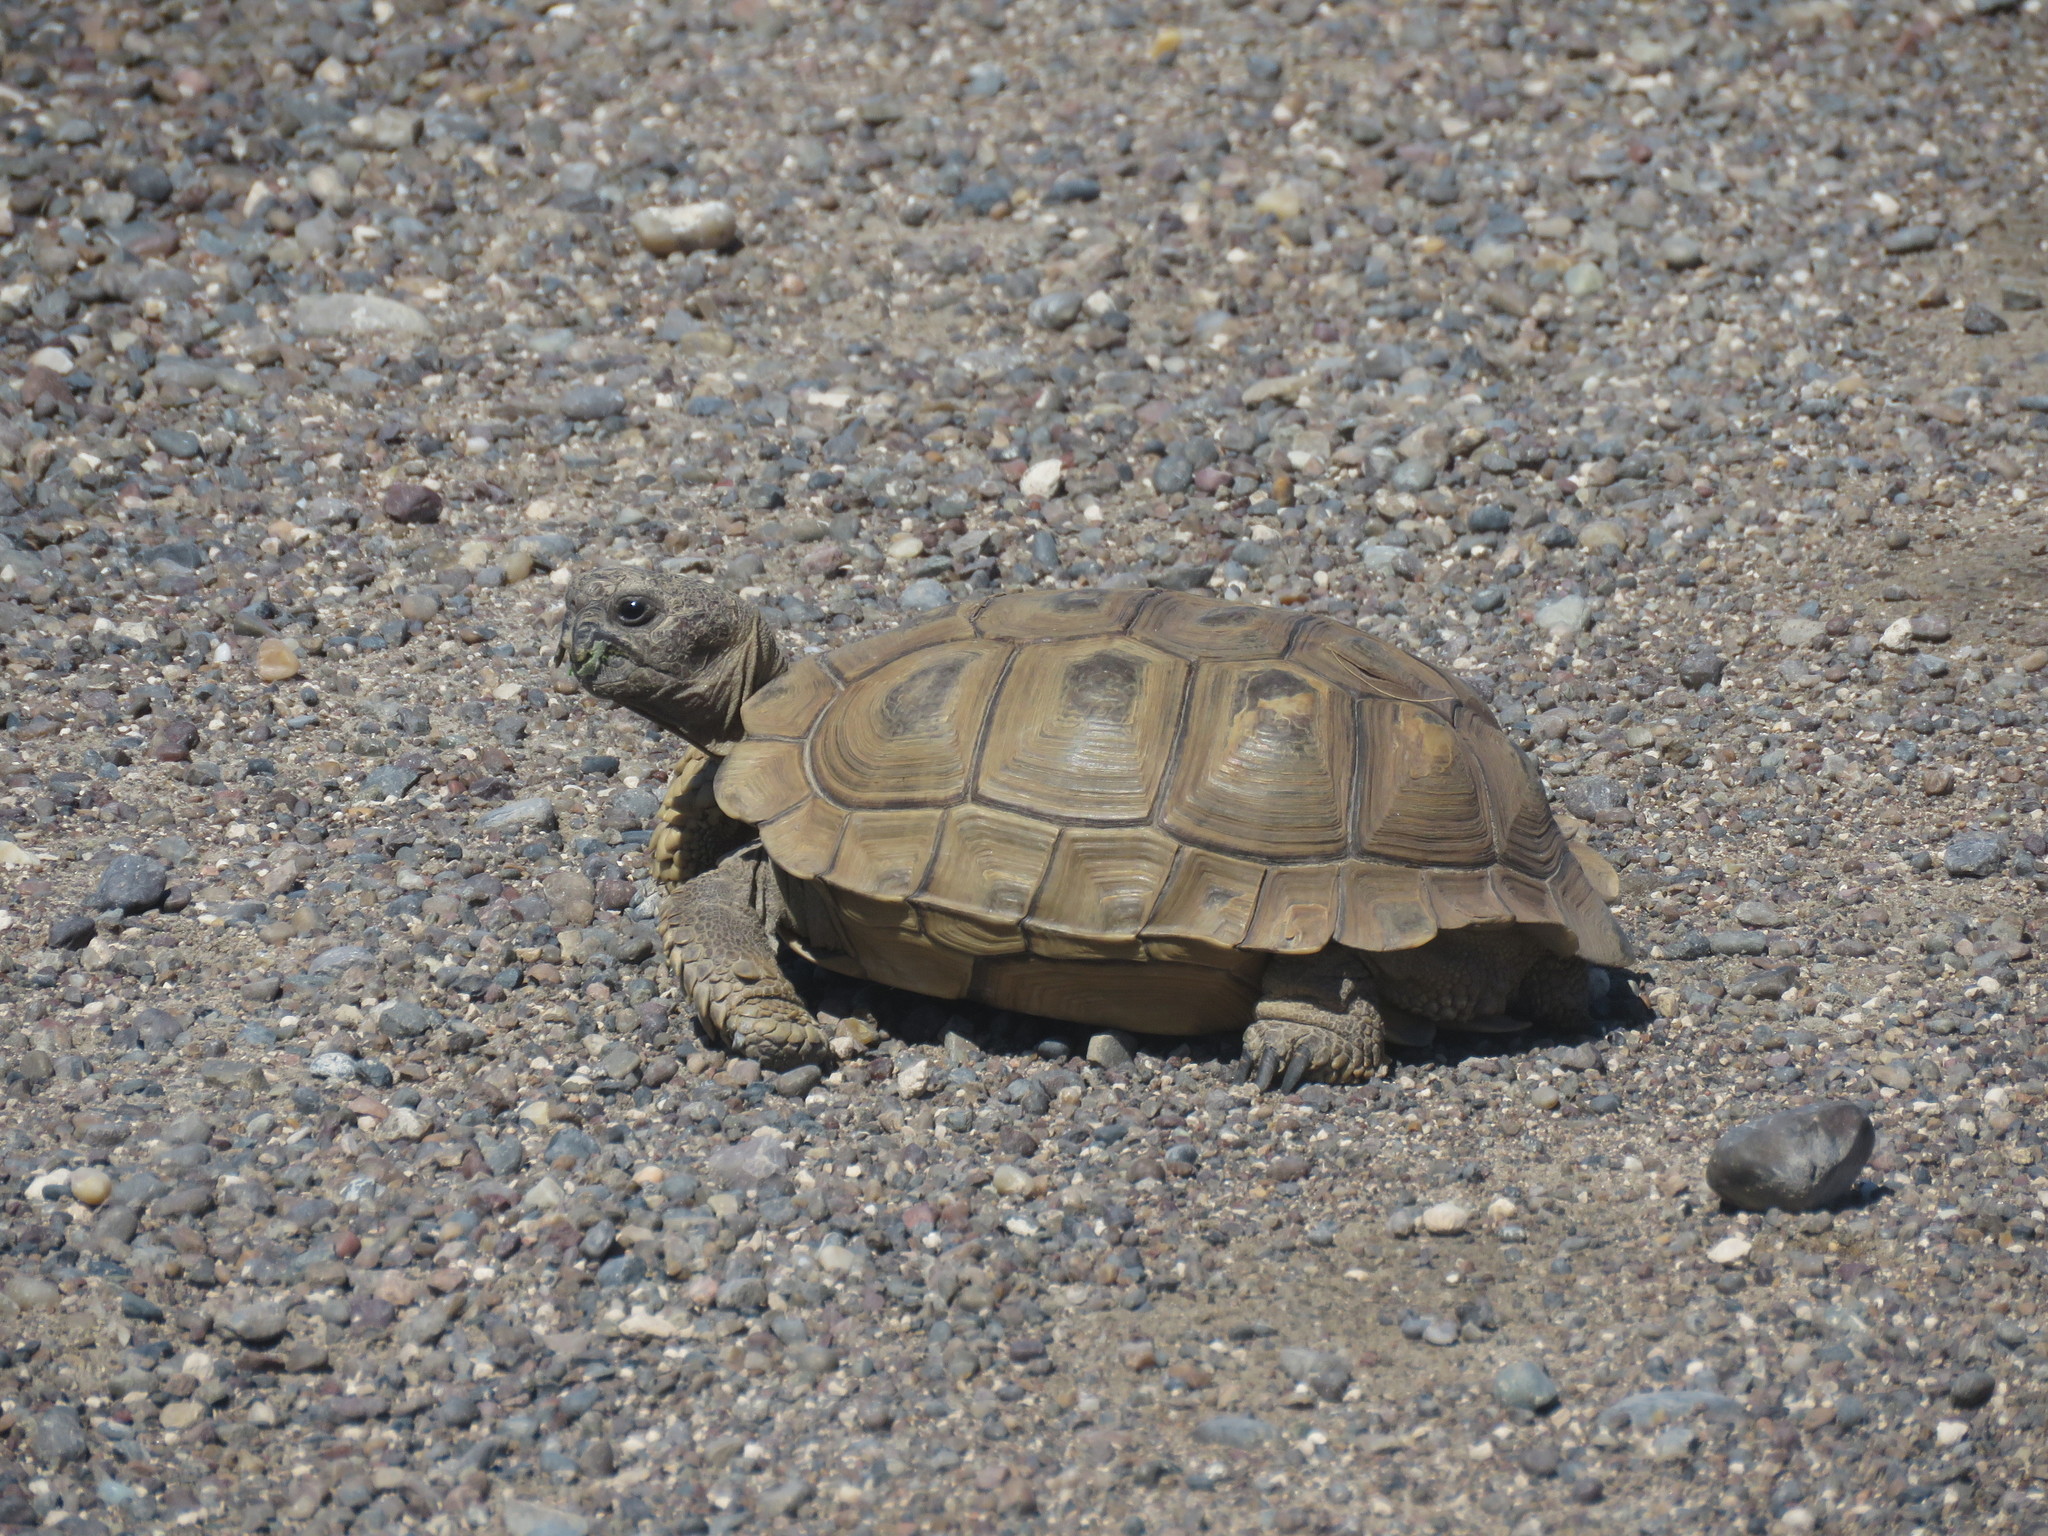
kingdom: Animalia
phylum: Chordata
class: Testudines
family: Testudinidae
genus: Chelonoidis
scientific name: Chelonoidis chilensis
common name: Chaco tortoise
